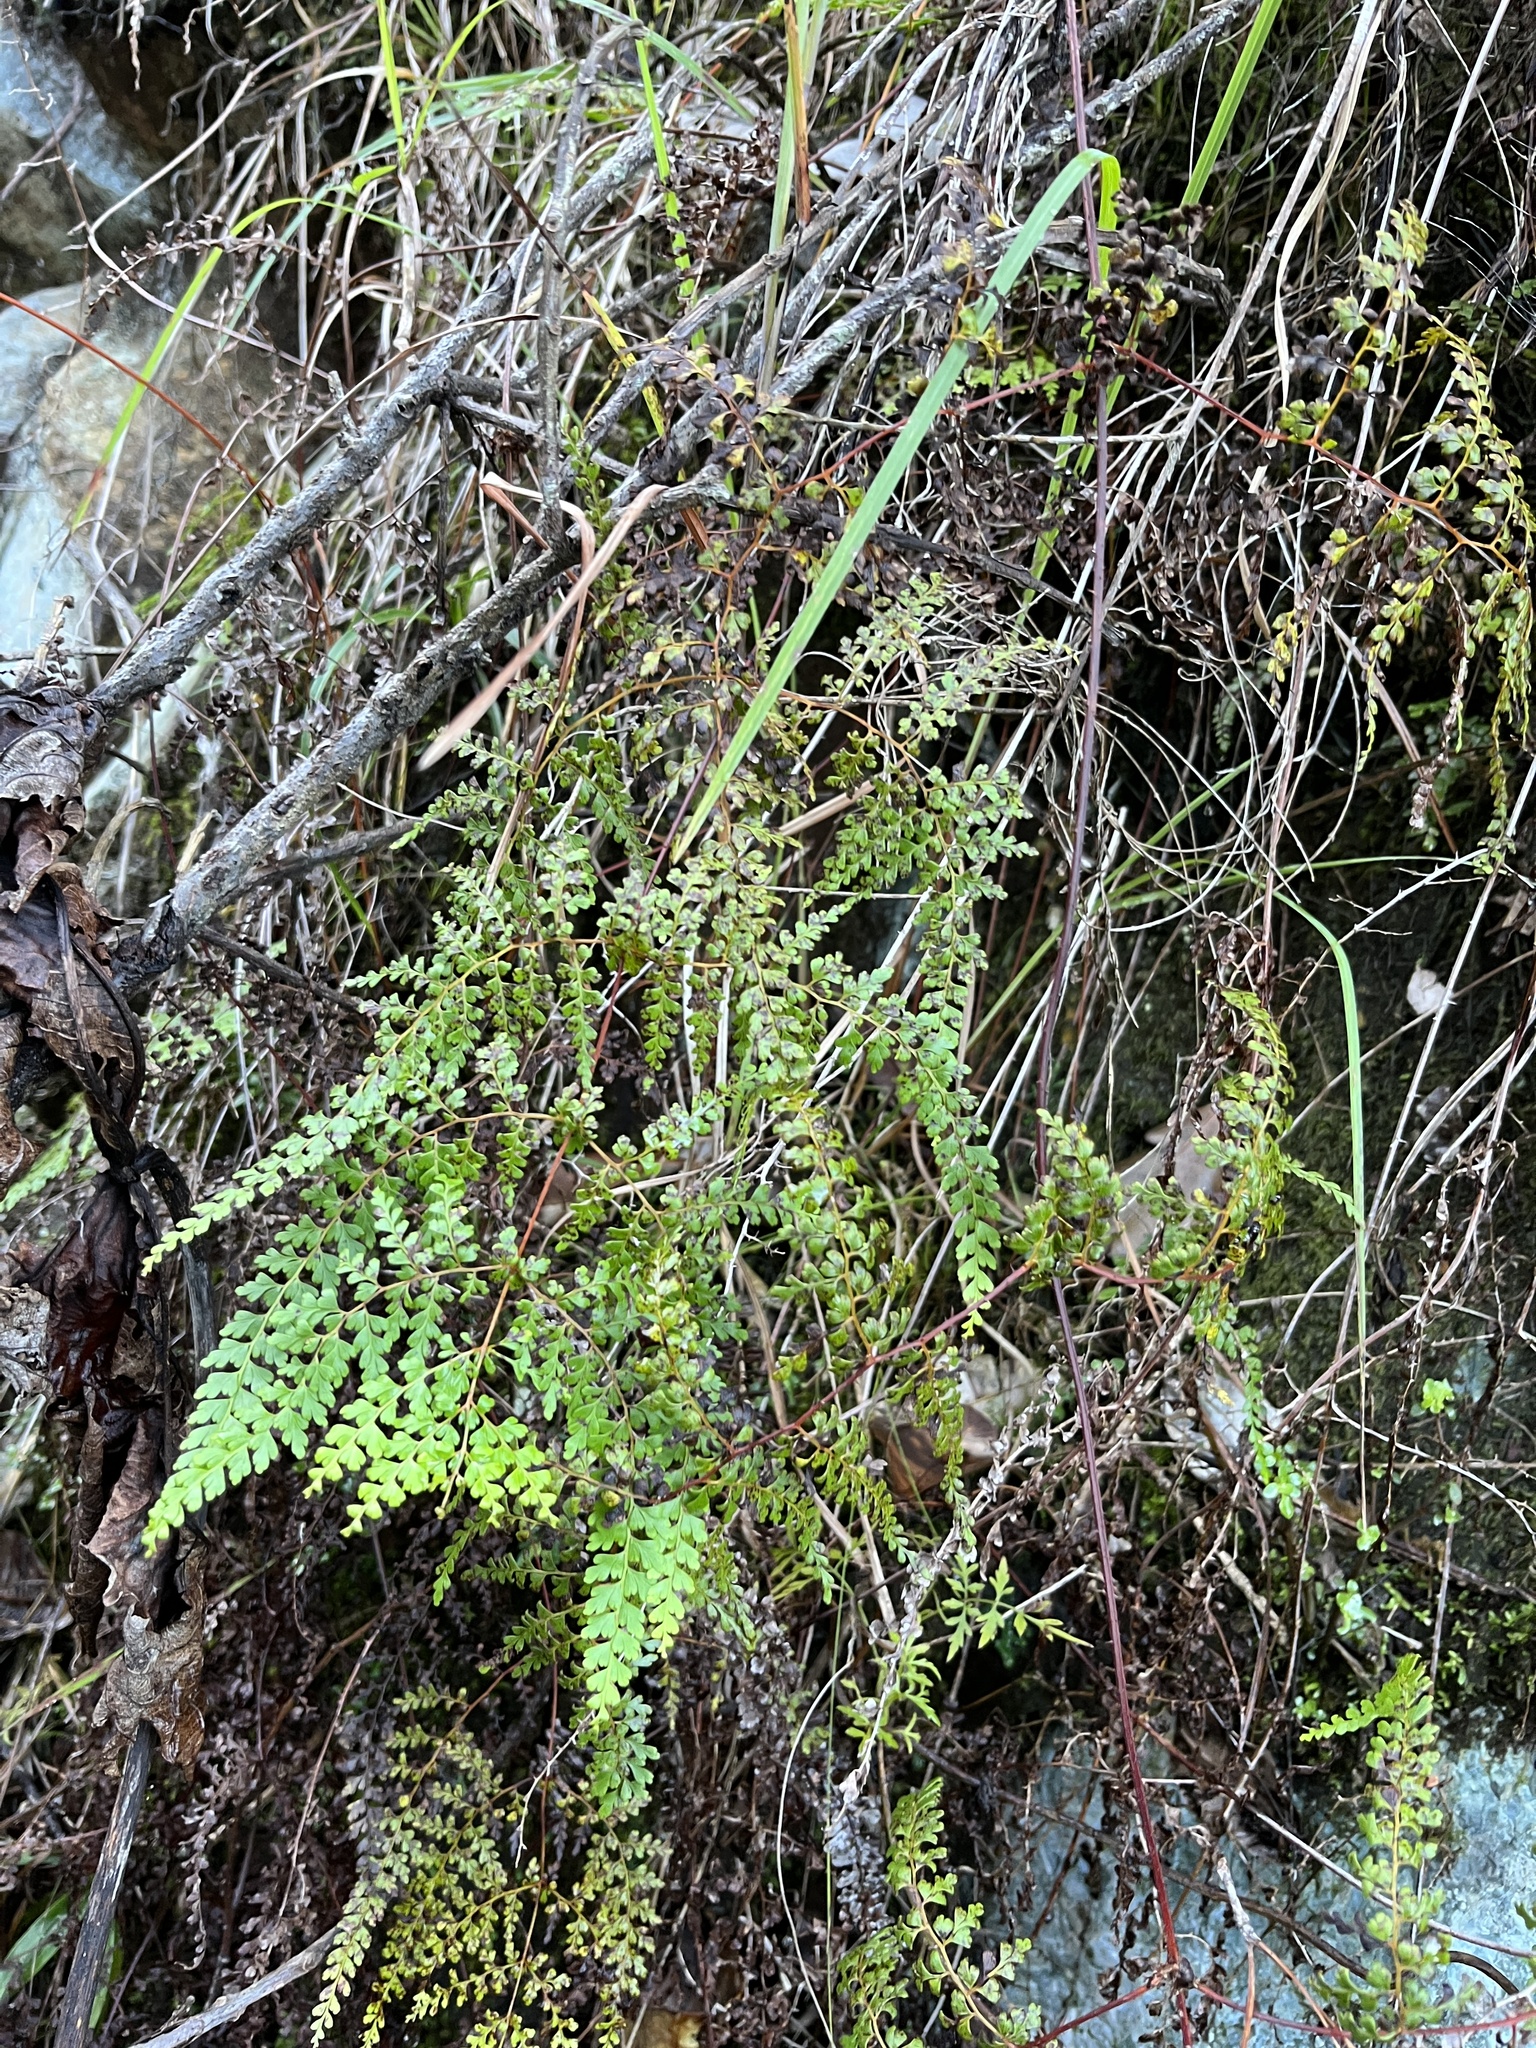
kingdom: Plantae
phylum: Tracheophyta
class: Polypodiopsida
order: Polypodiales
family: Lindsaeaceae
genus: Odontosoria
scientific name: Odontosoria aculeata
